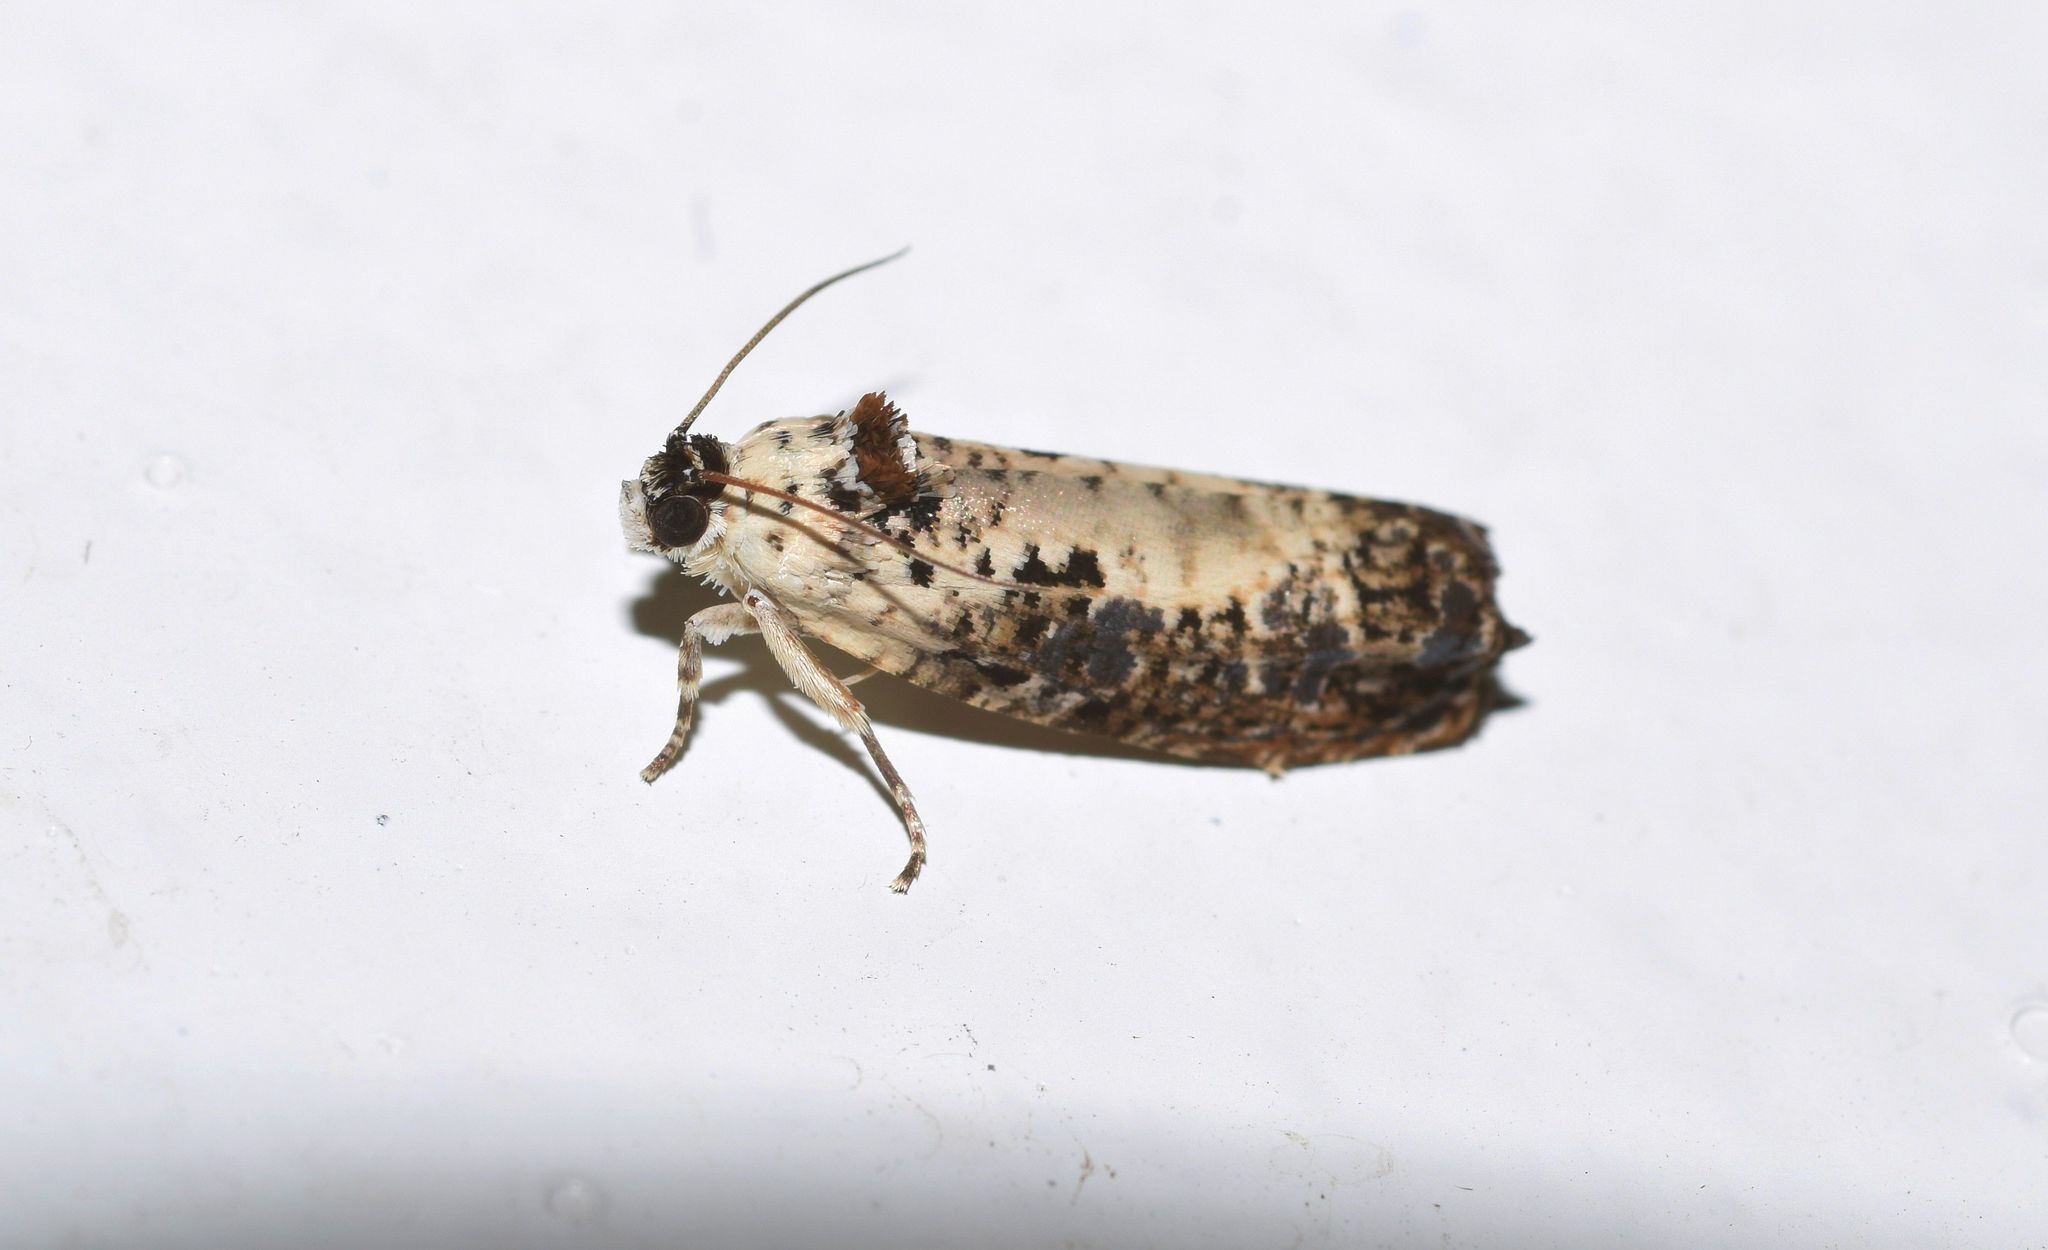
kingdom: Animalia
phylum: Arthropoda
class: Insecta
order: Lepidoptera
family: Tortricidae
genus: Hedya
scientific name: Hedya salicella
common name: Large tortricid moth
